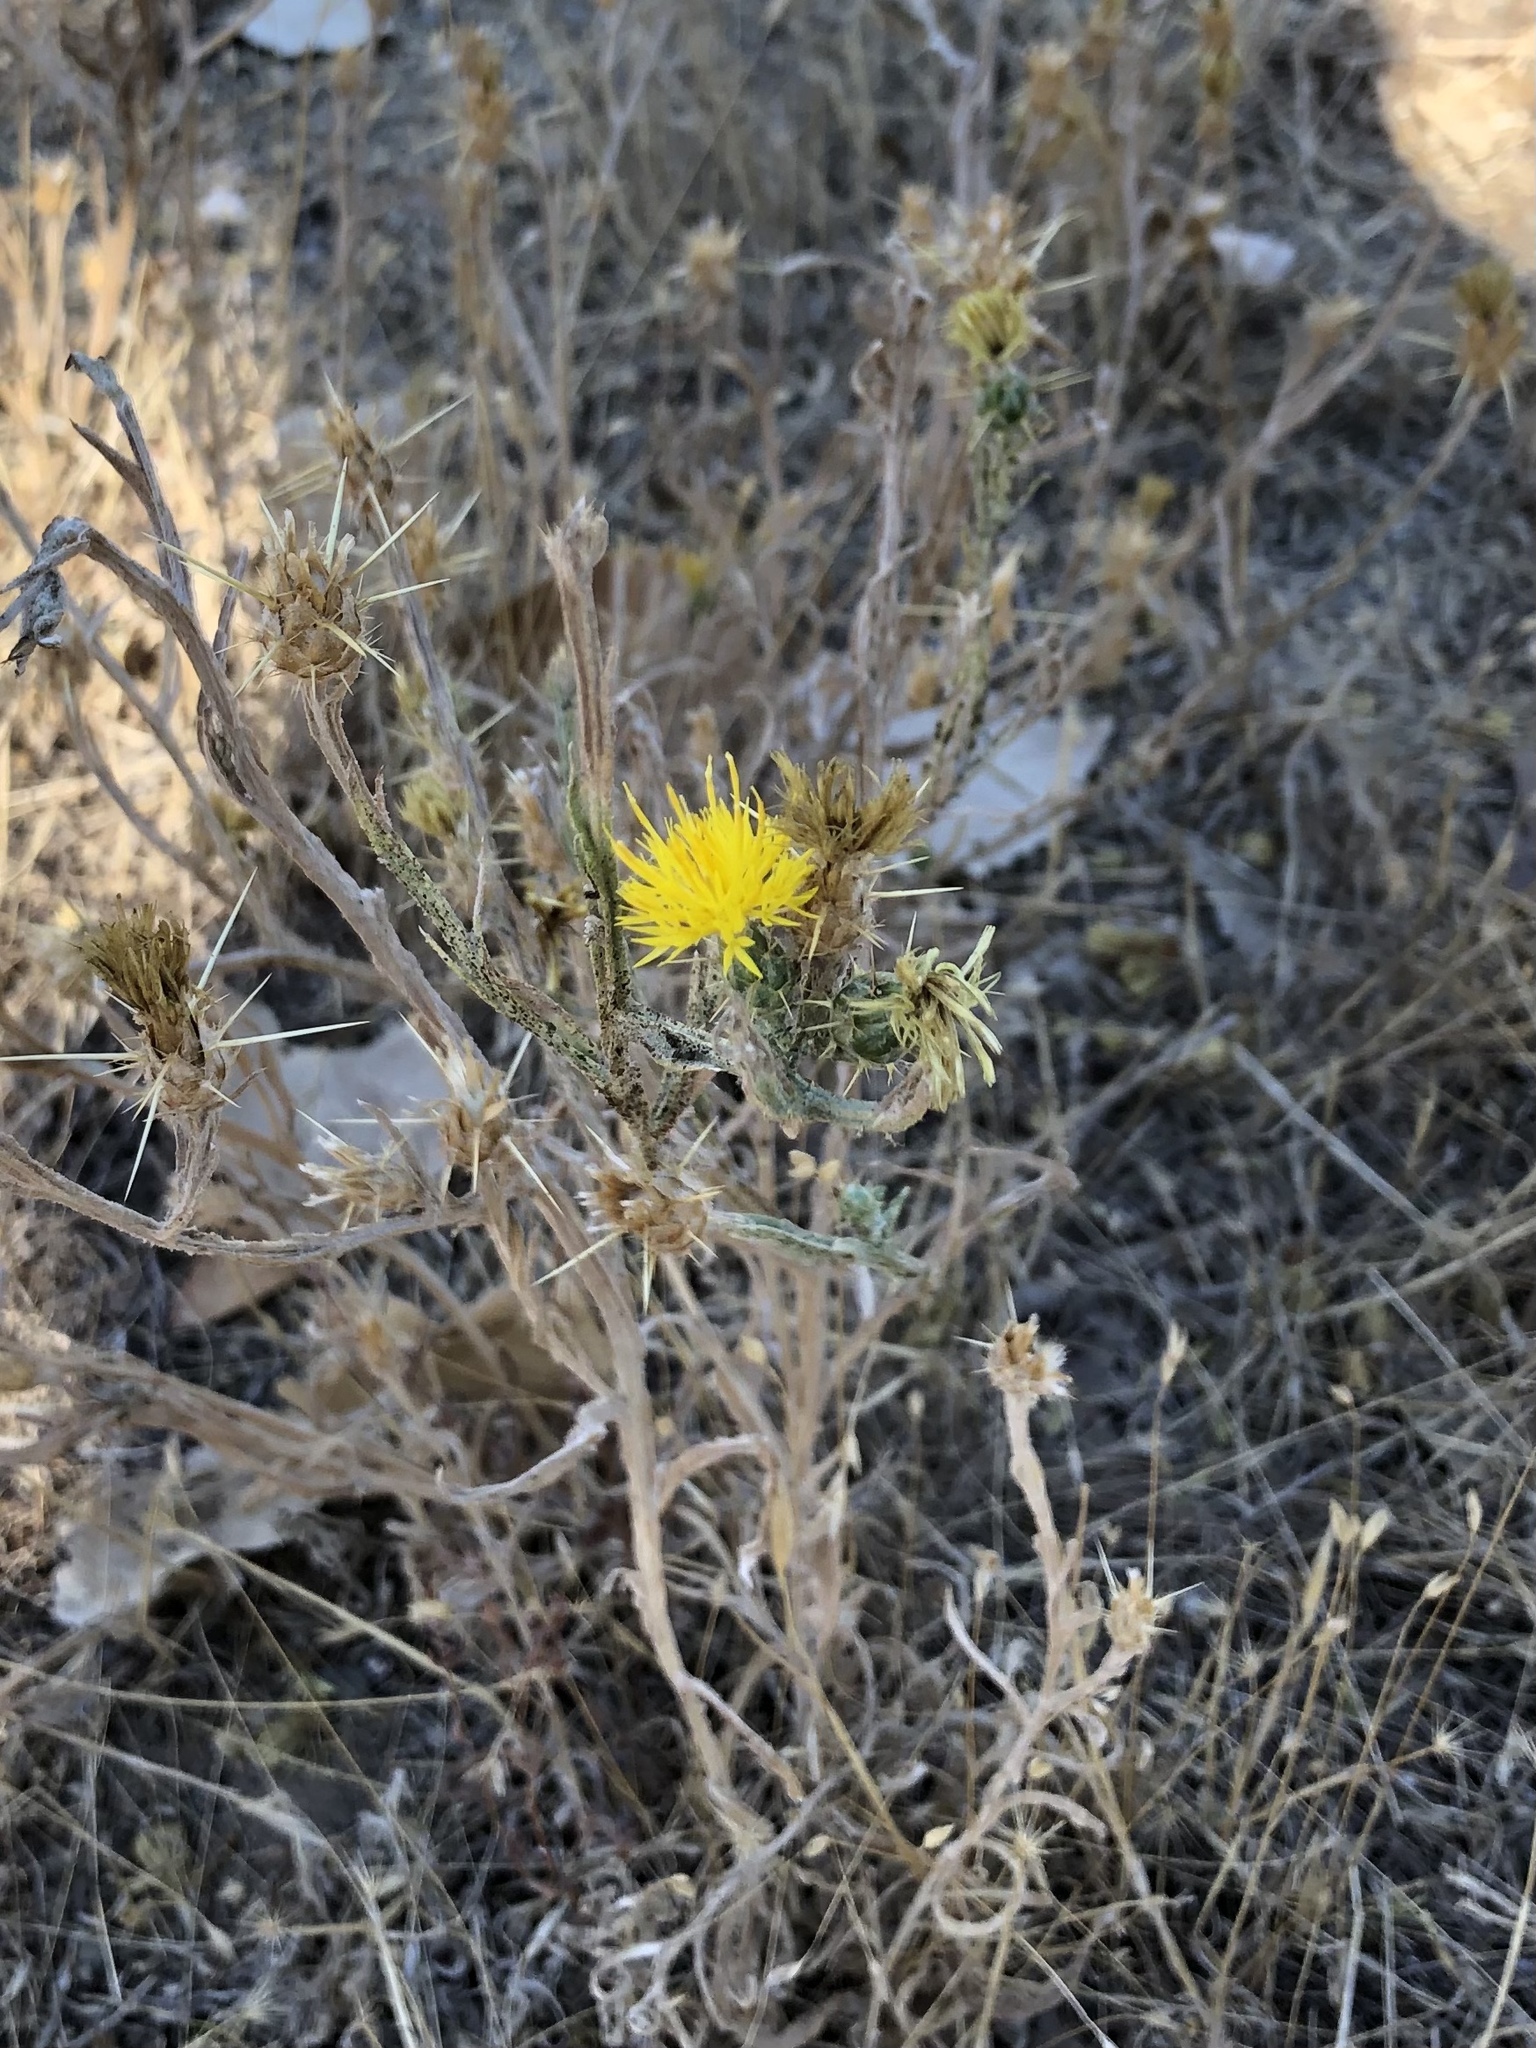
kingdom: Plantae
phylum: Tracheophyta
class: Magnoliopsida
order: Asterales
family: Asteraceae
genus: Centaurea
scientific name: Centaurea solstitialis
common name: Yellow star-thistle
